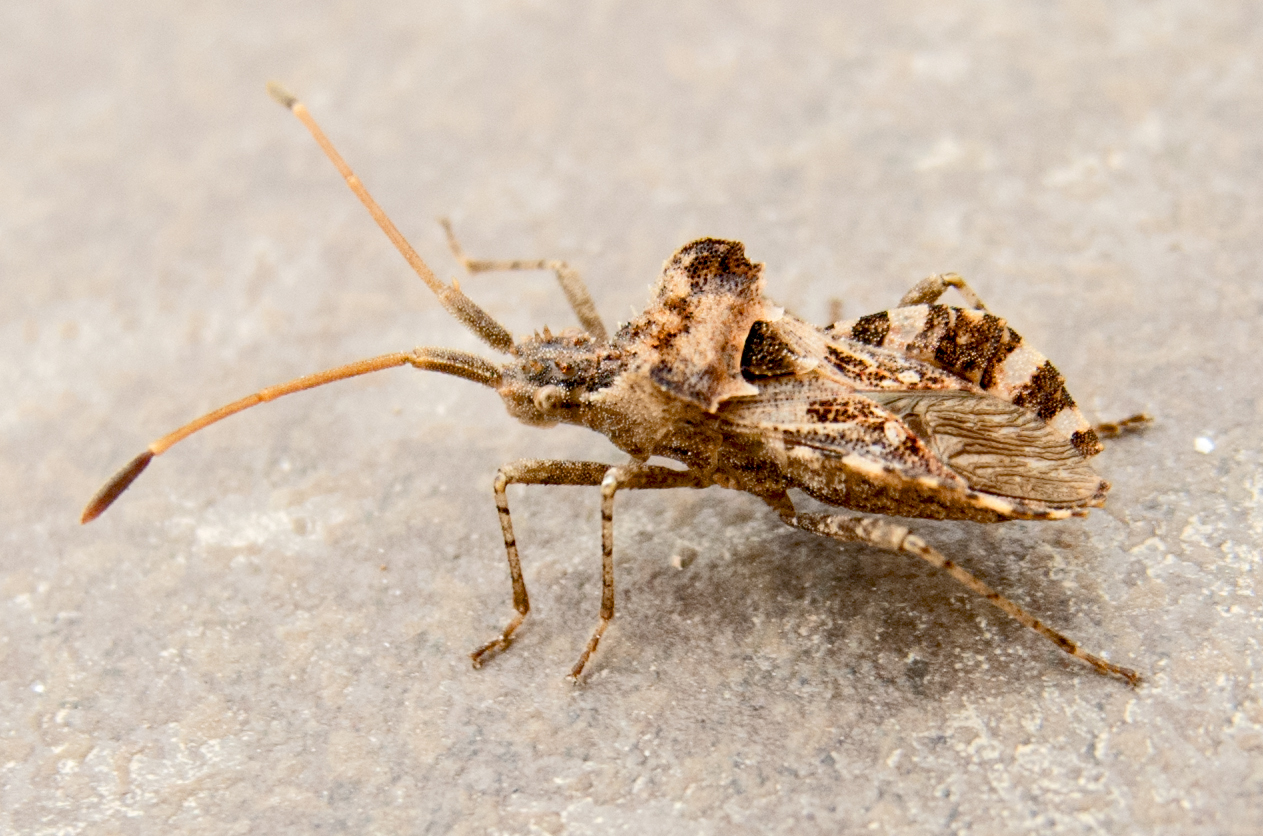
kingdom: Animalia
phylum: Arthropoda
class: Insecta
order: Hemiptera
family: Coreidae
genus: Centrocoris
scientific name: Centrocoris variegatus
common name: Leaf-footed bug
